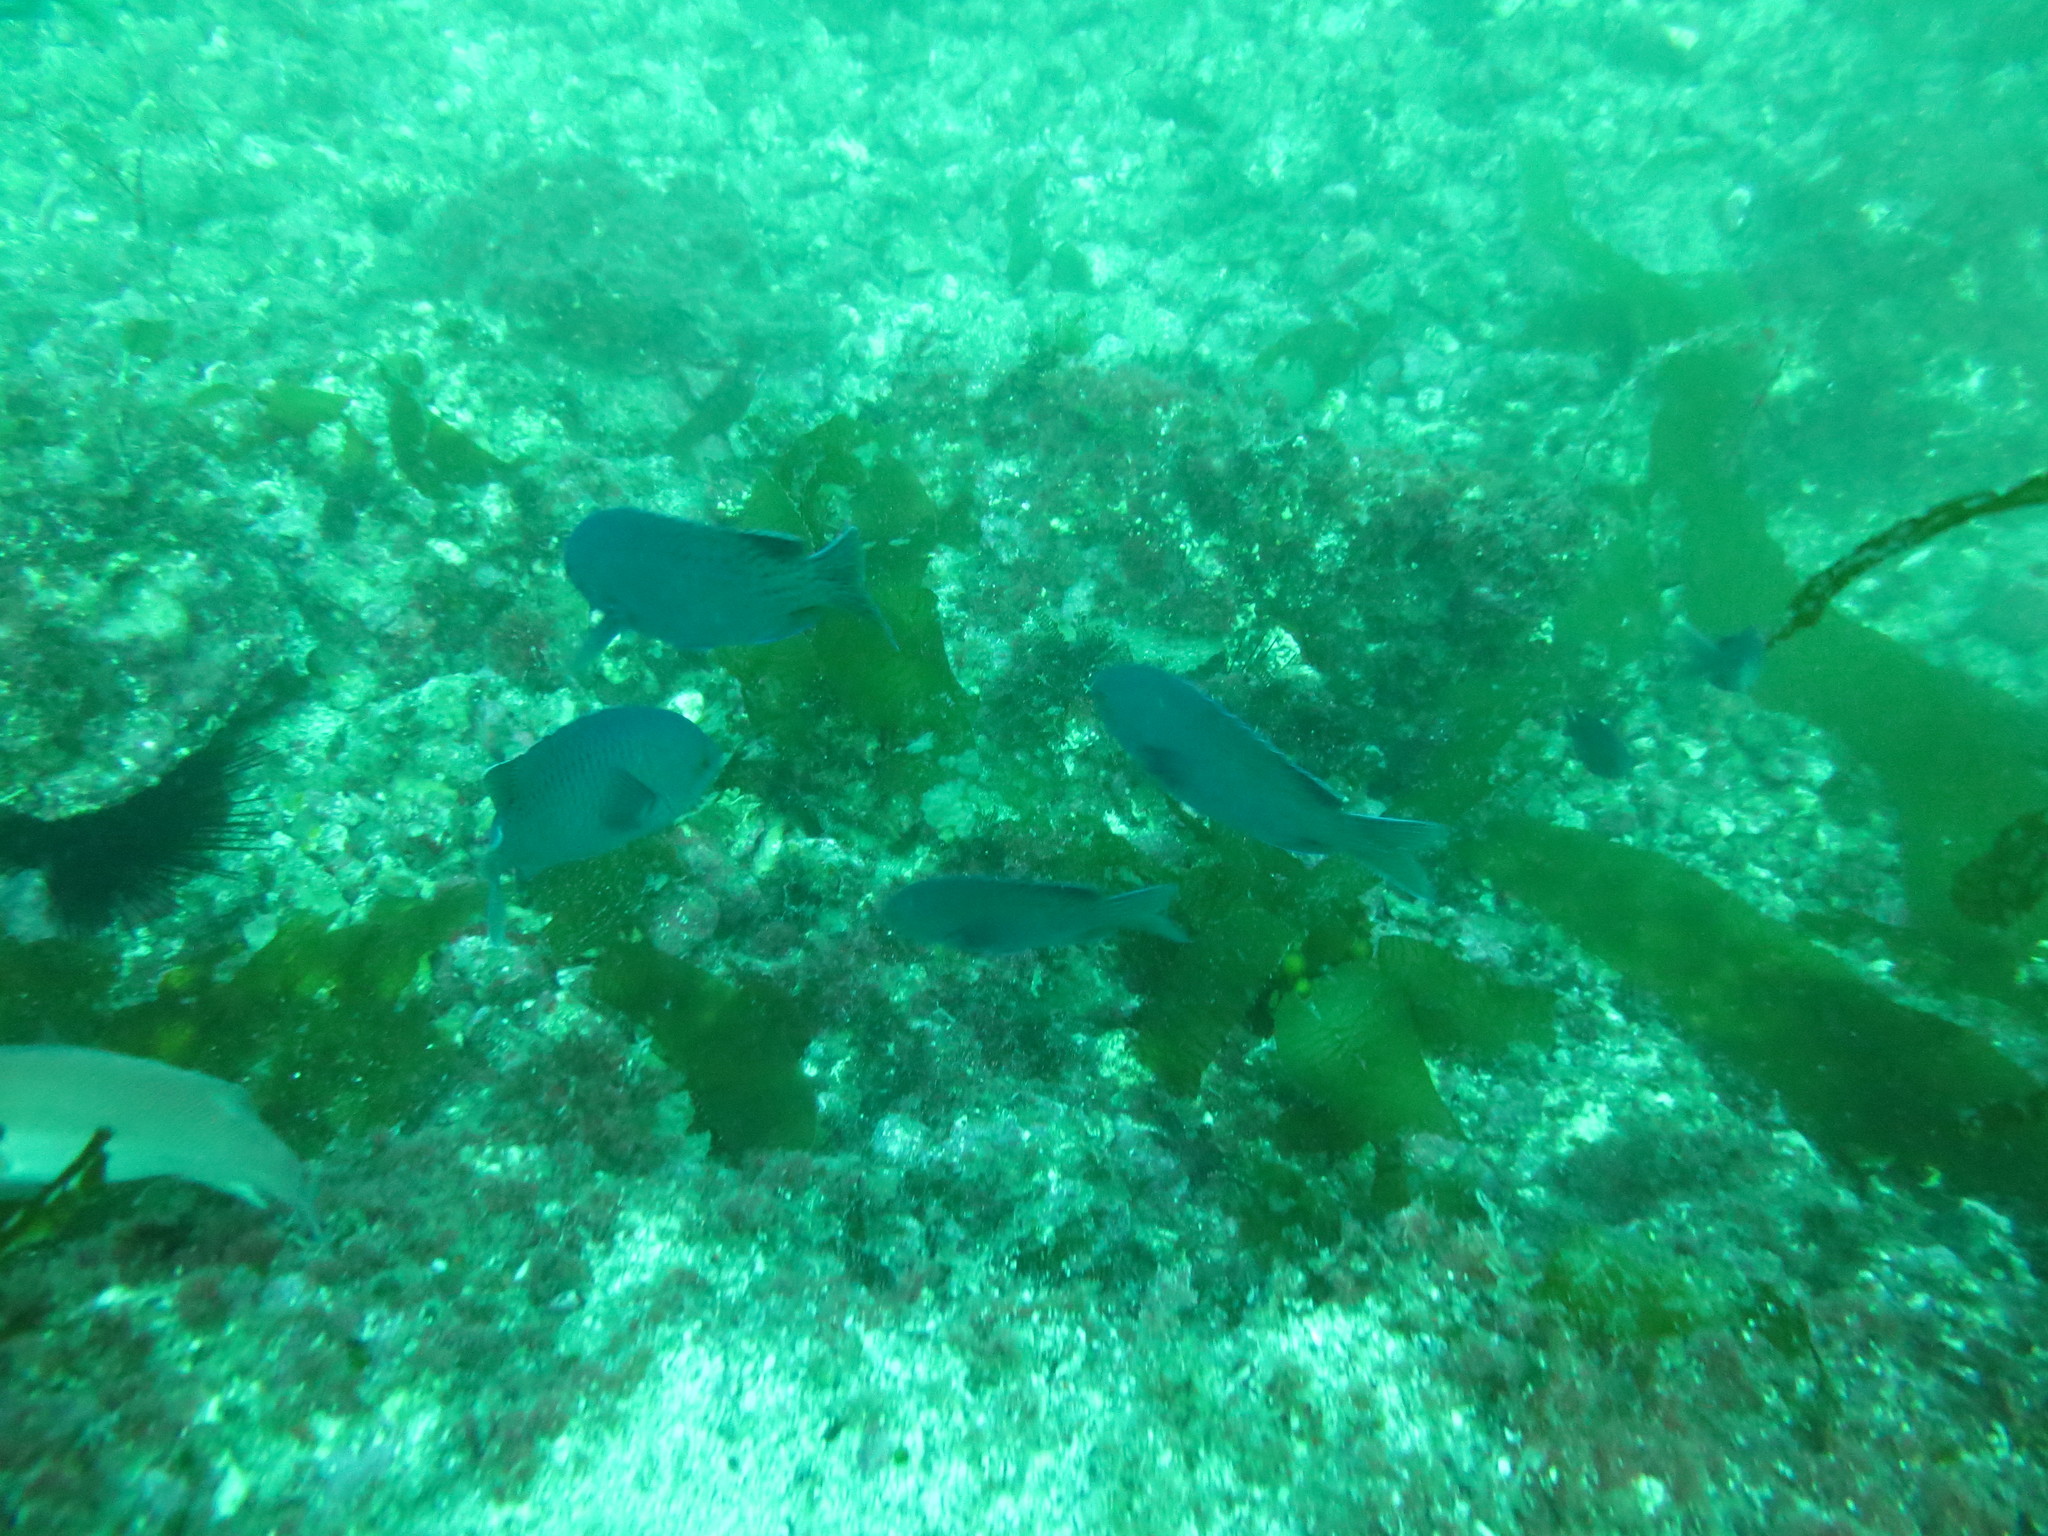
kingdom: Animalia
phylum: Chordata
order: Perciformes
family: Pomacentridae
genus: Chromis
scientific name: Chromis punctipinnis
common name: Blacksmith
